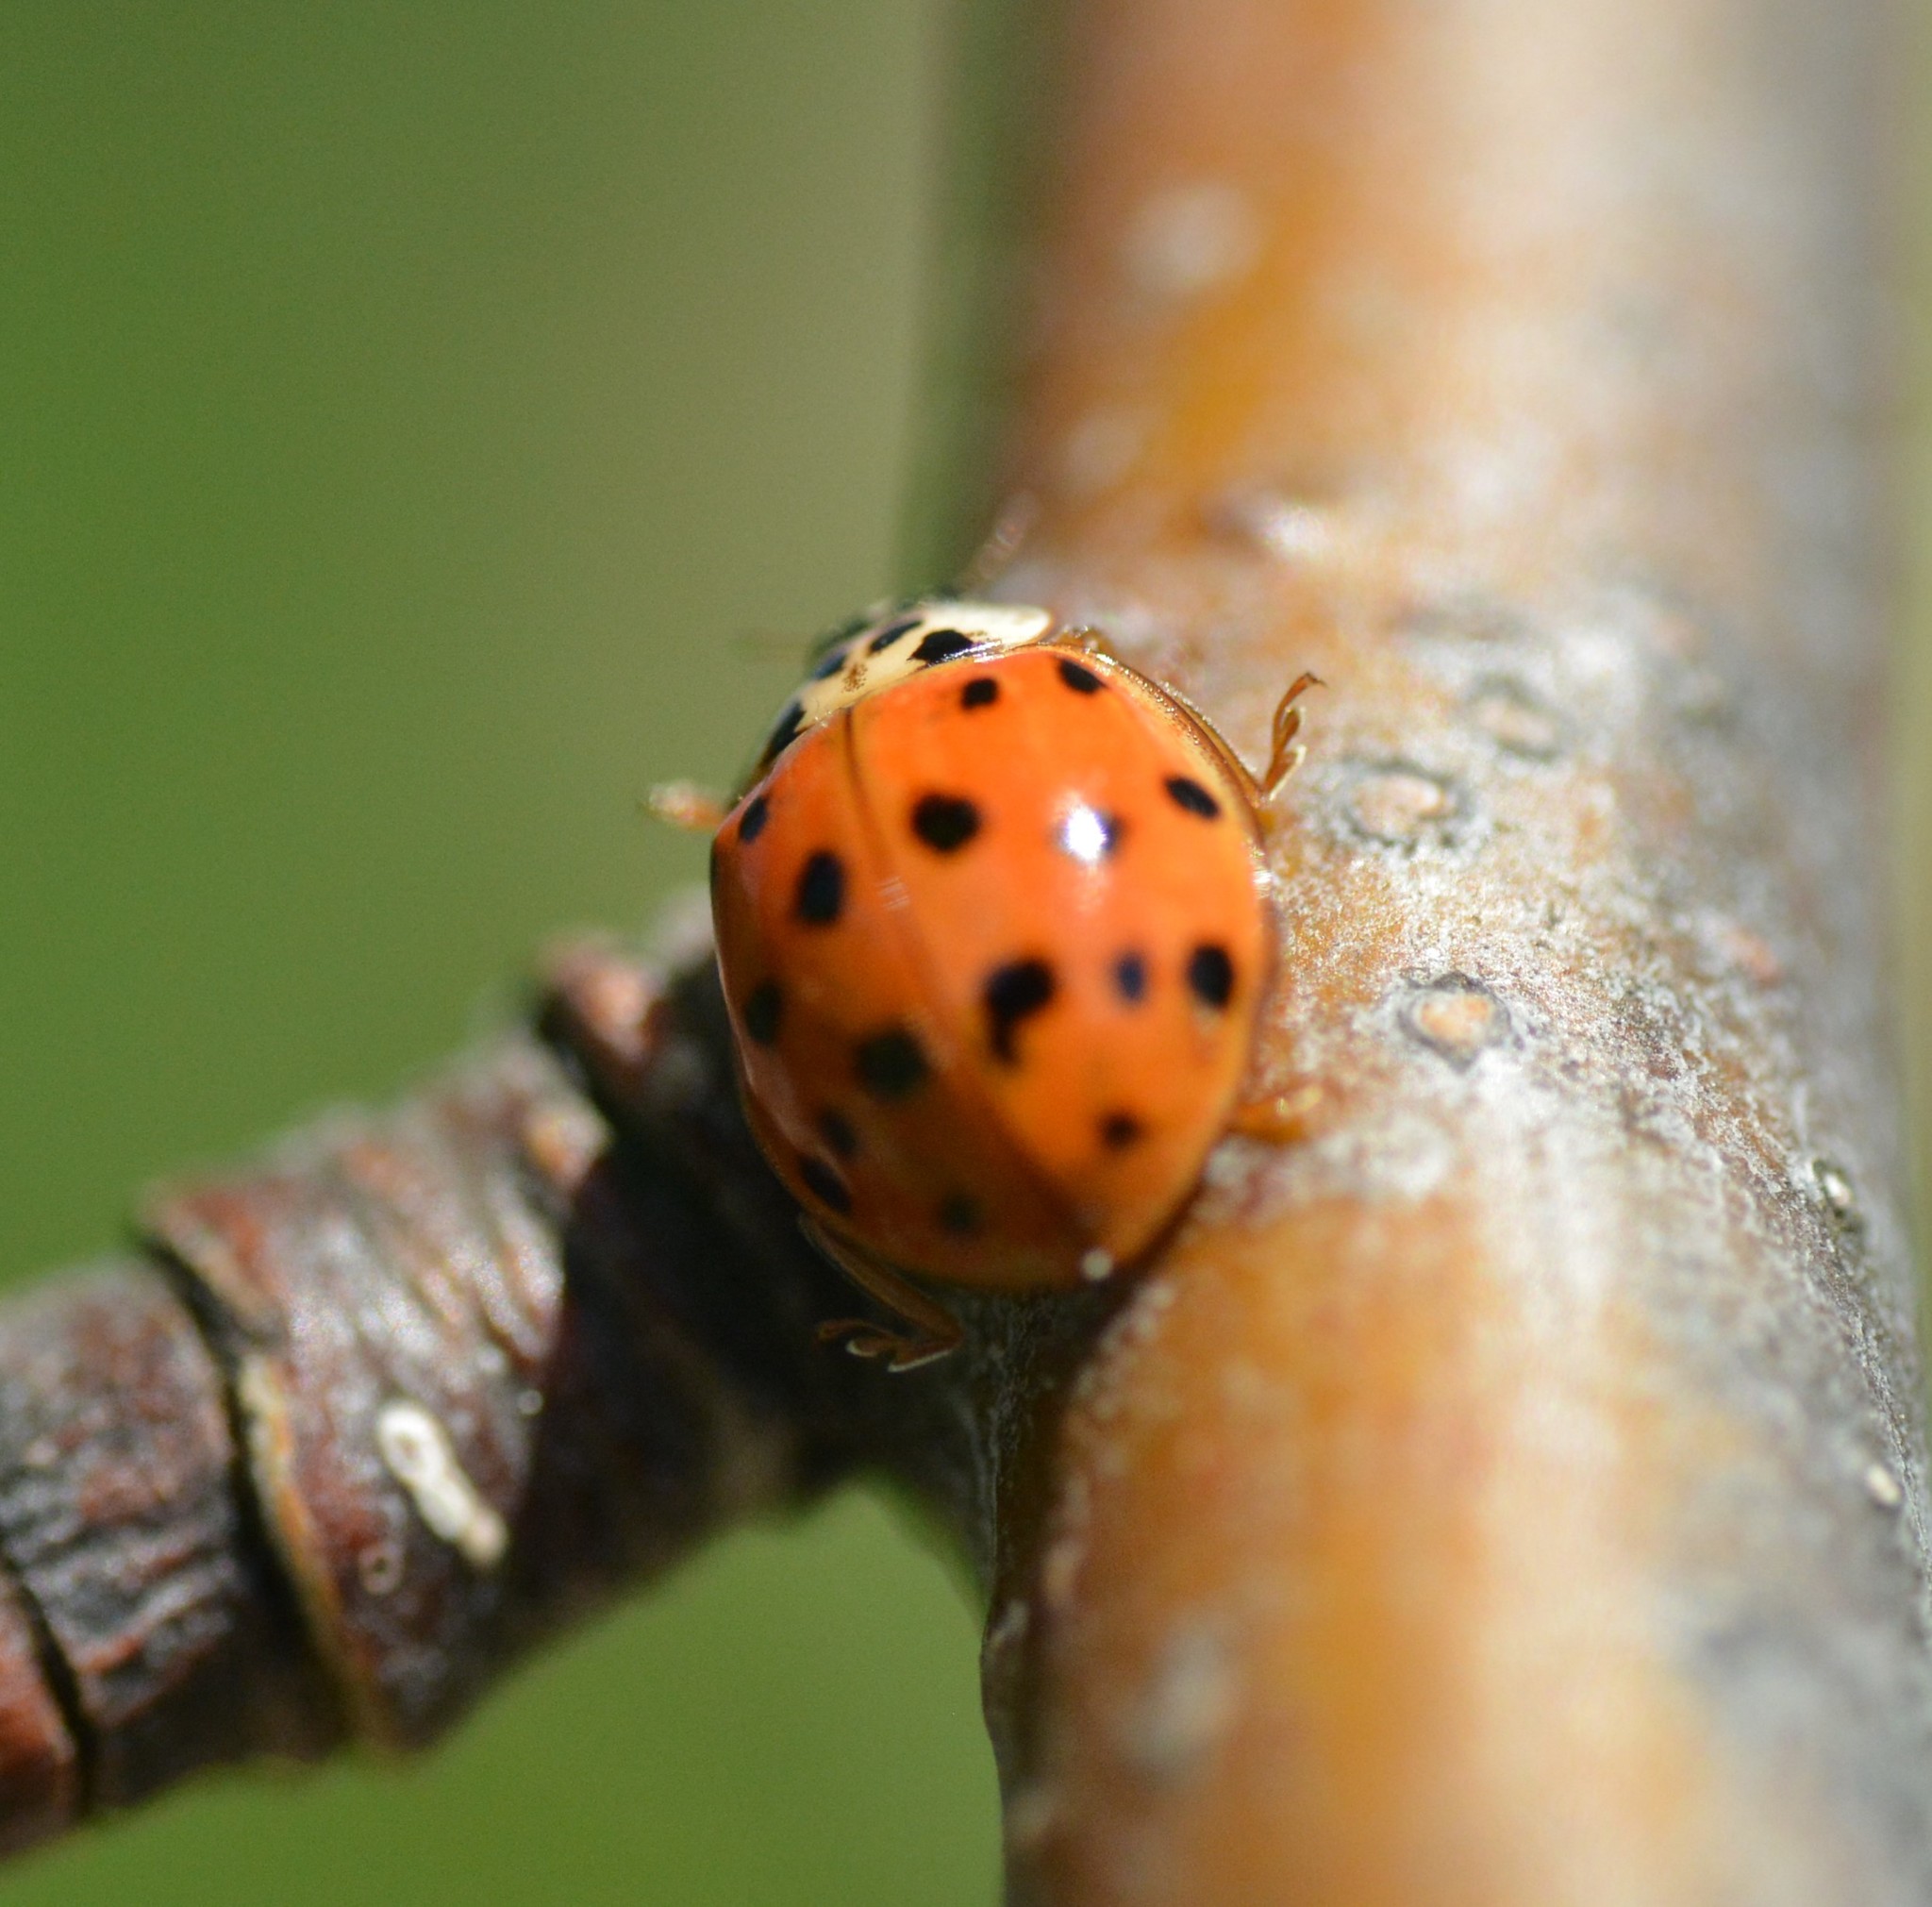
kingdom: Animalia
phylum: Arthropoda
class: Insecta
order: Coleoptera
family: Coccinellidae
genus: Harmonia
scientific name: Harmonia axyridis
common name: Harlequin ladybird
